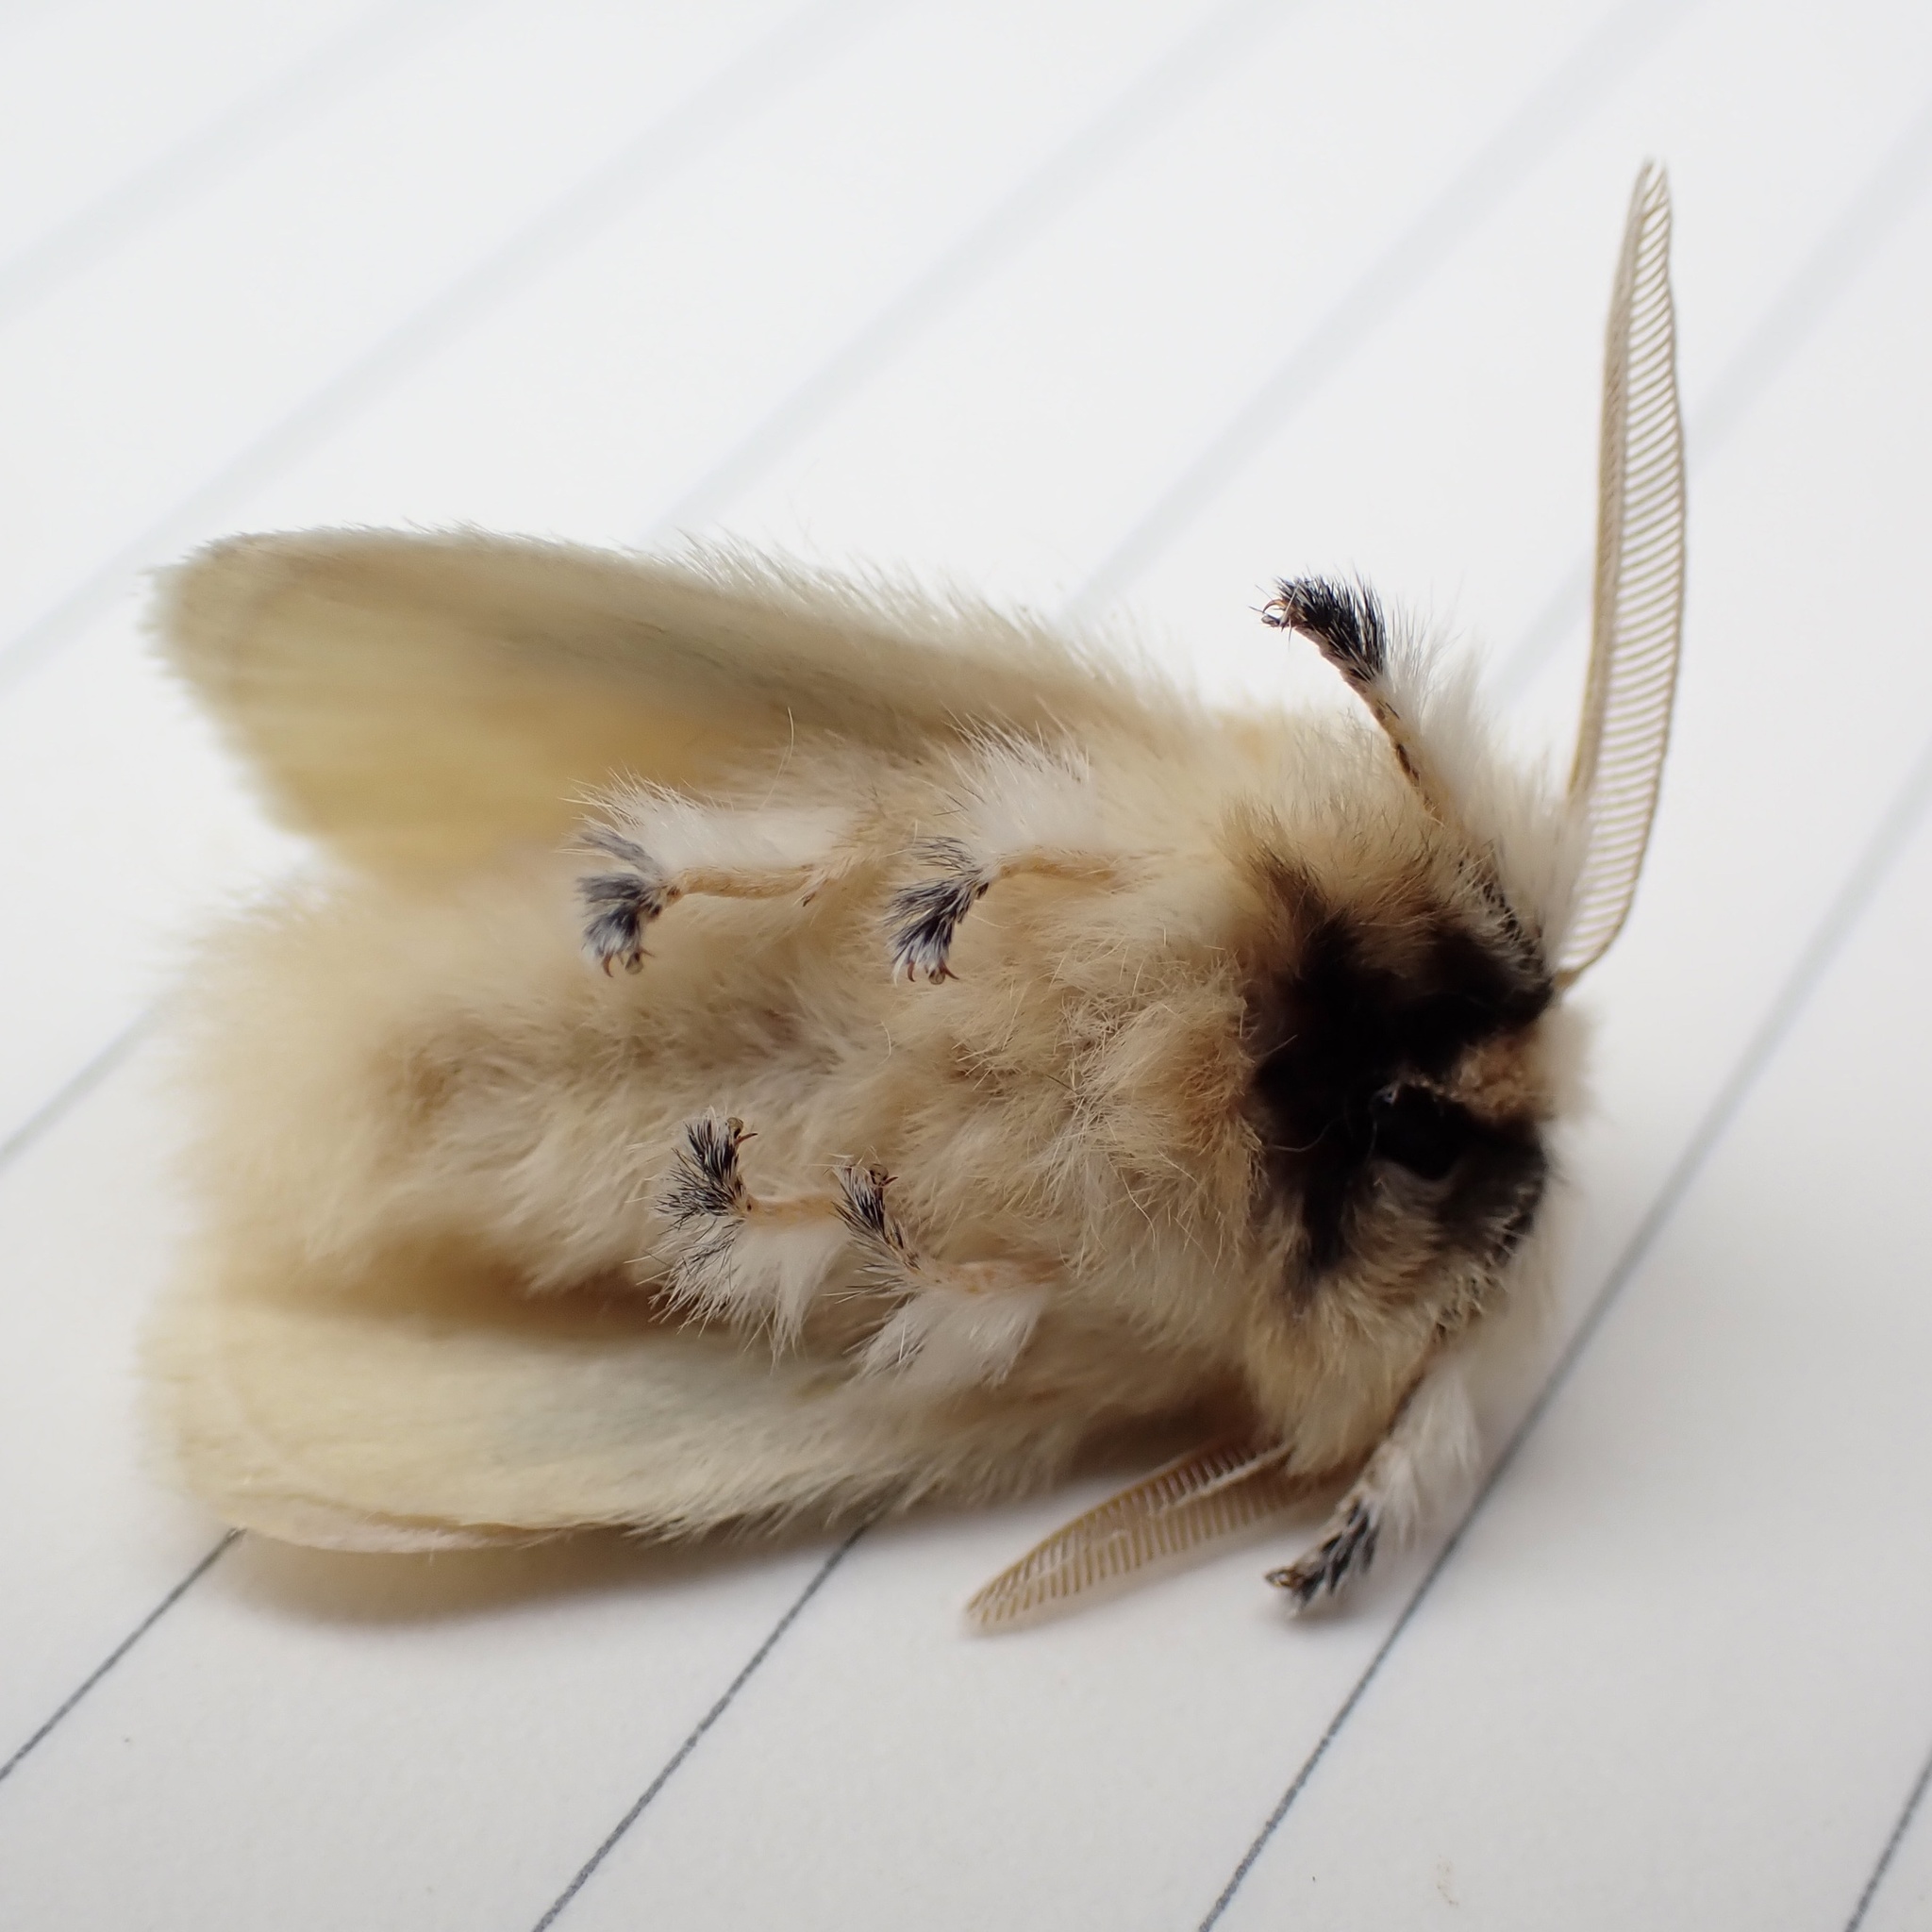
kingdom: Animalia
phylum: Arthropoda
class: Insecta
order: Lepidoptera
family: Megalopygidae
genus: Megalopyge
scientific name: Megalopyge crispata
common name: Black-waved flannel moth
